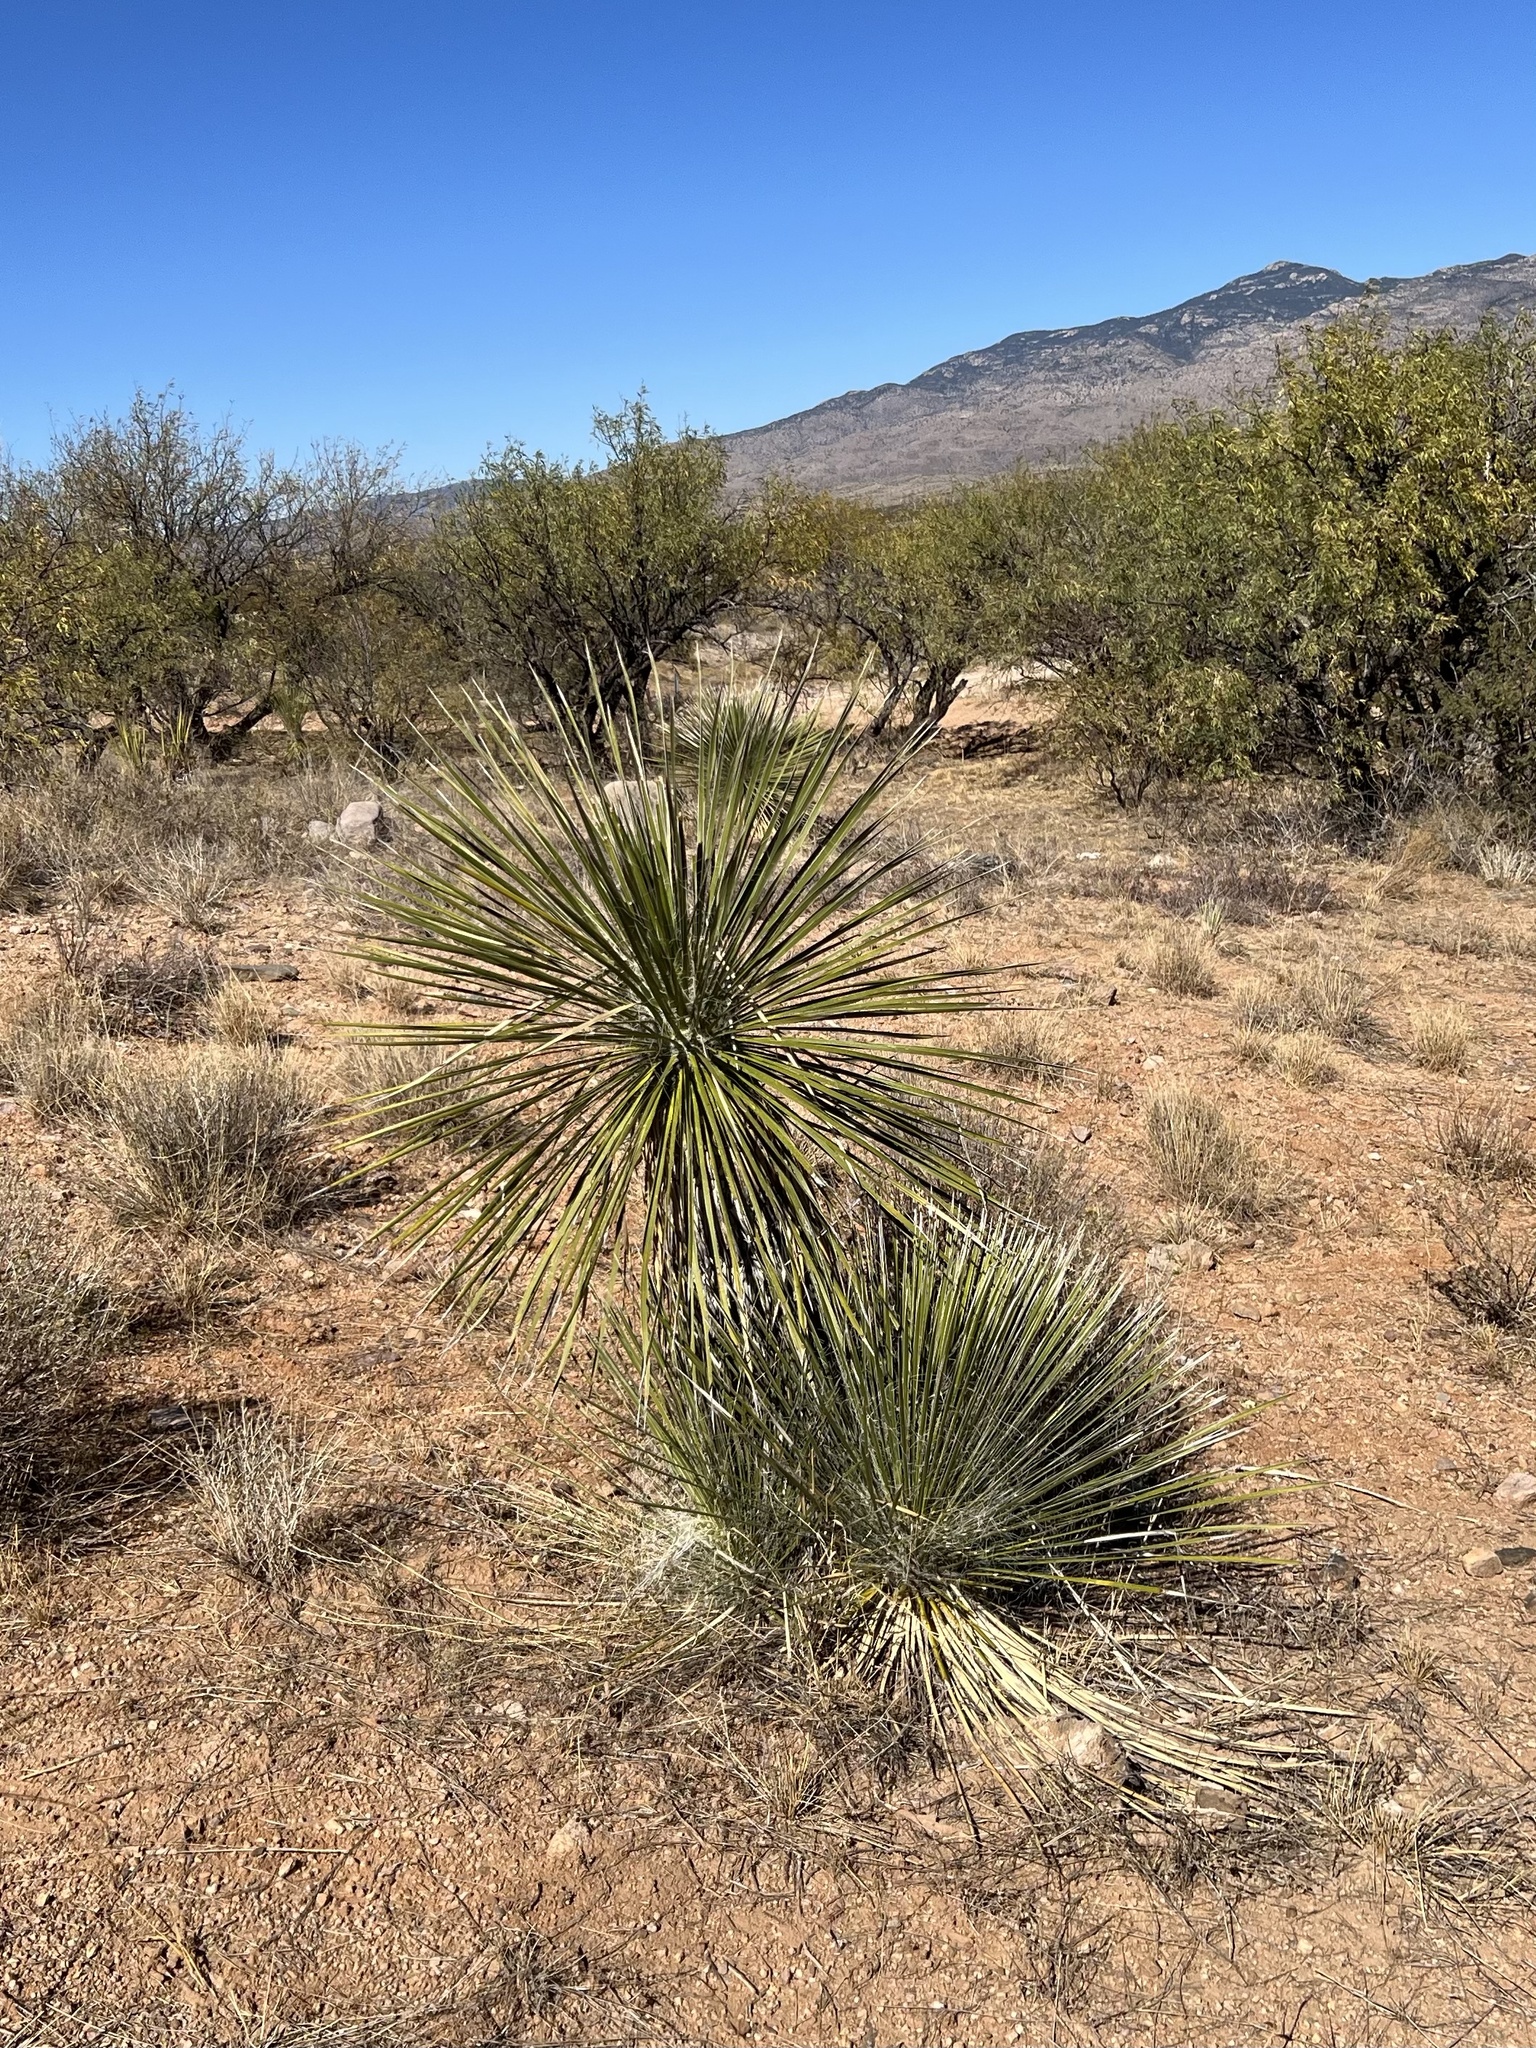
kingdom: Plantae
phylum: Tracheophyta
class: Liliopsida
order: Asparagales
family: Asparagaceae
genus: Yucca
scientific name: Yucca elata
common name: Palmella
